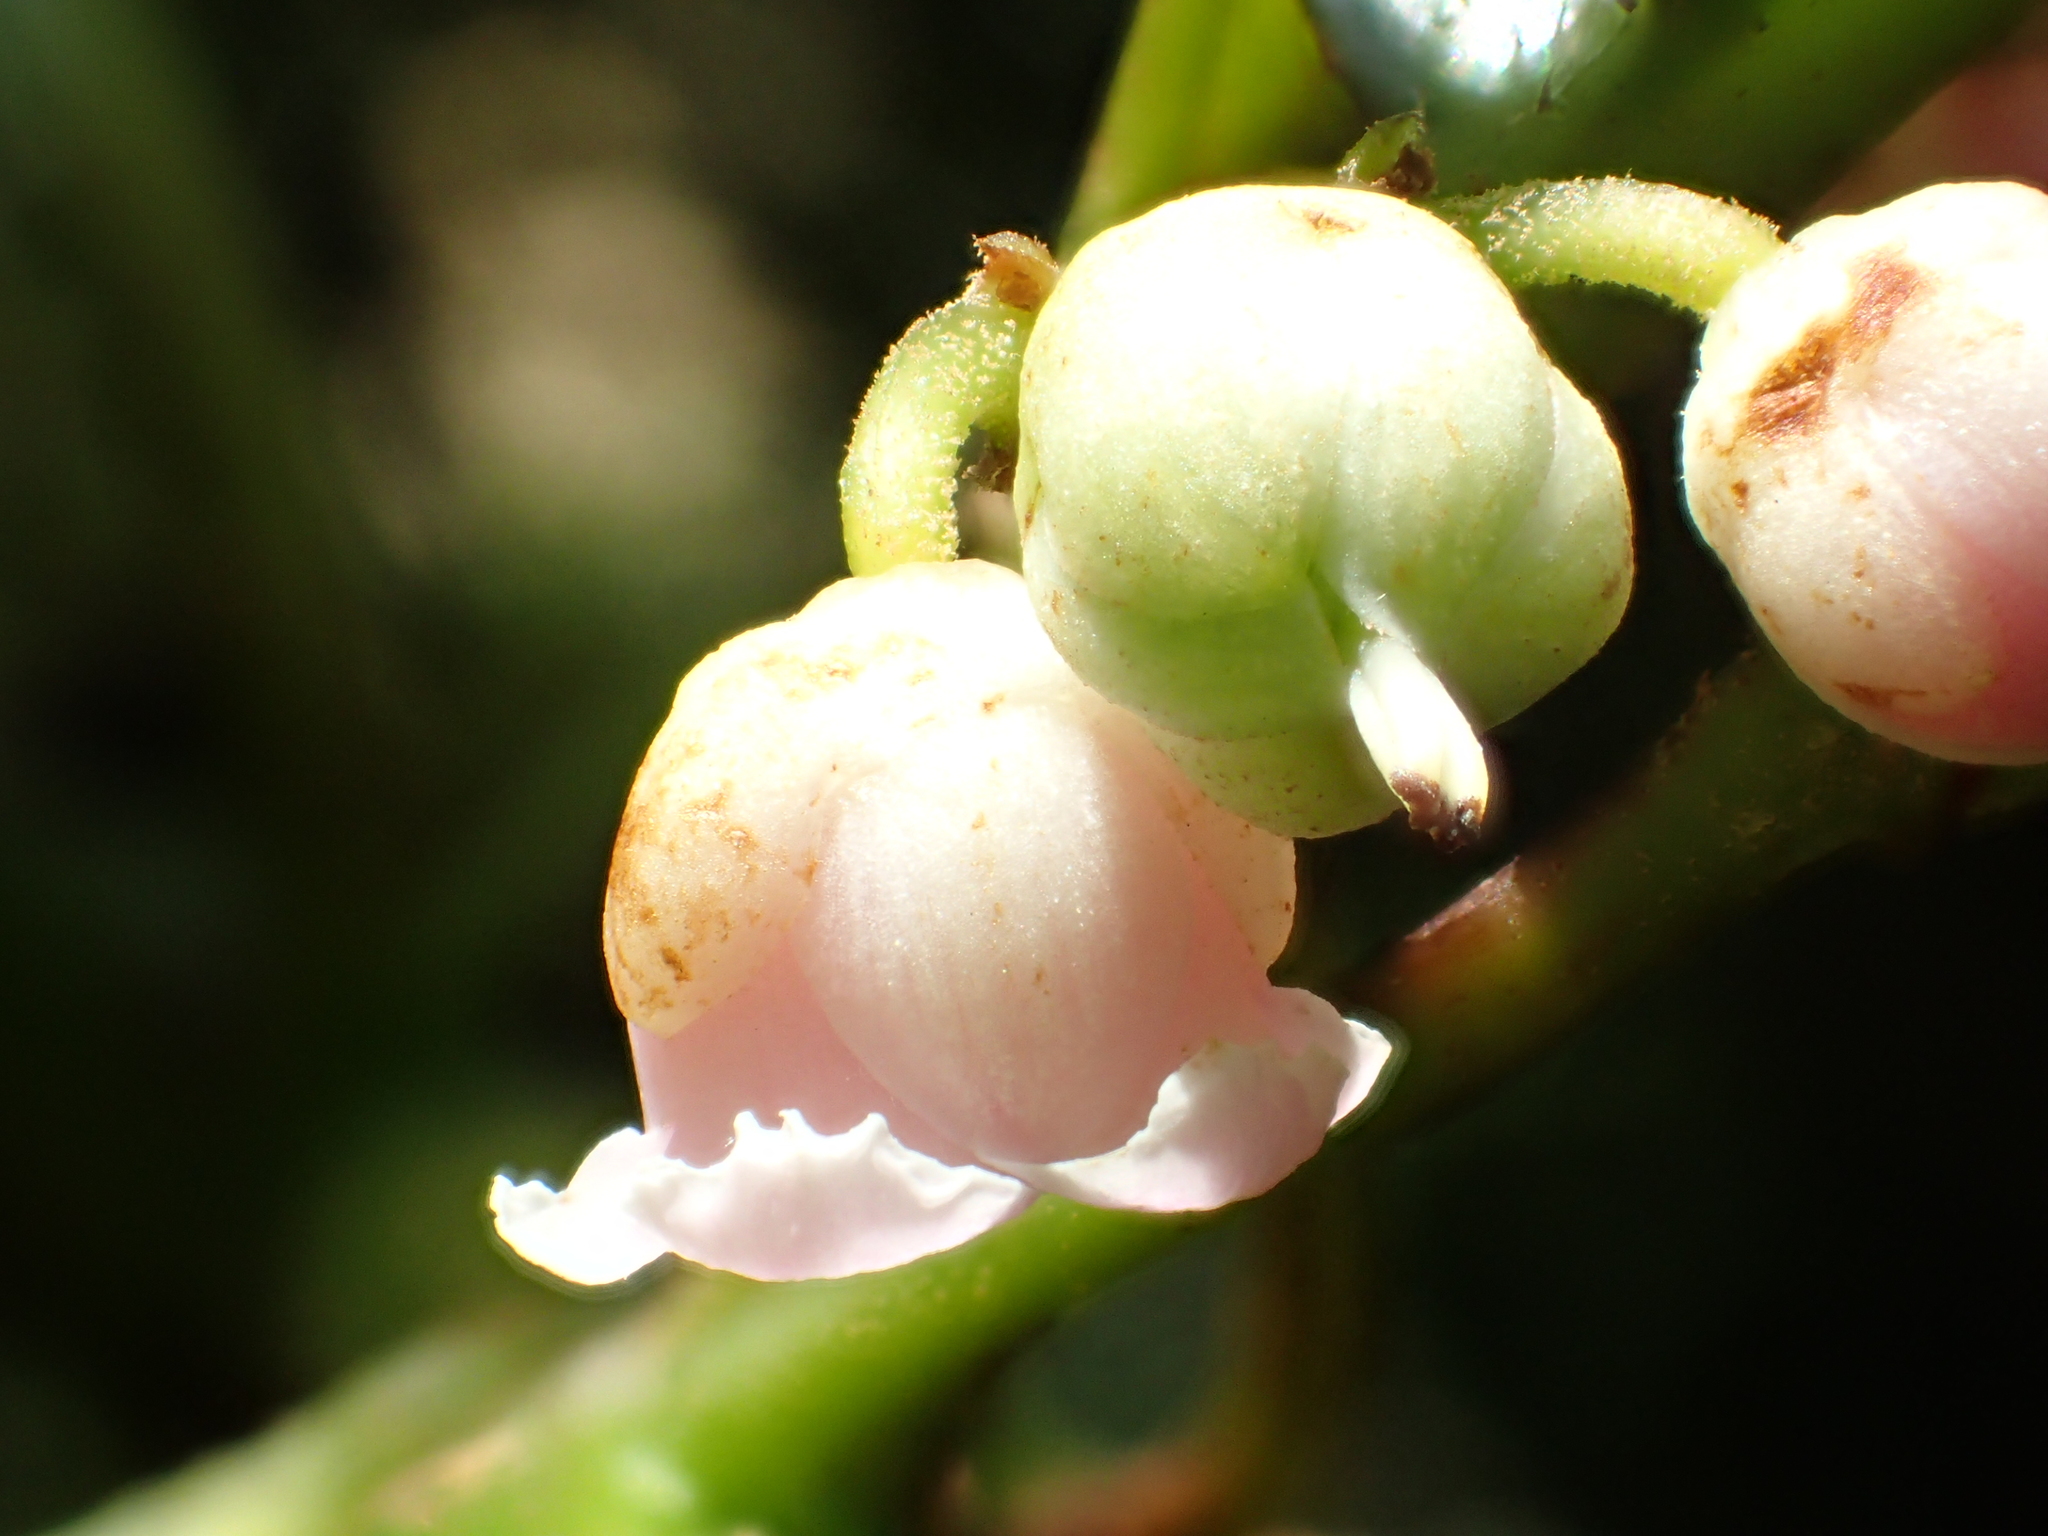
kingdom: Plantae
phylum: Tracheophyta
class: Magnoliopsida
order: Ericales
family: Actinidiaceae
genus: Saurauia
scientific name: Saurauia tristyla
